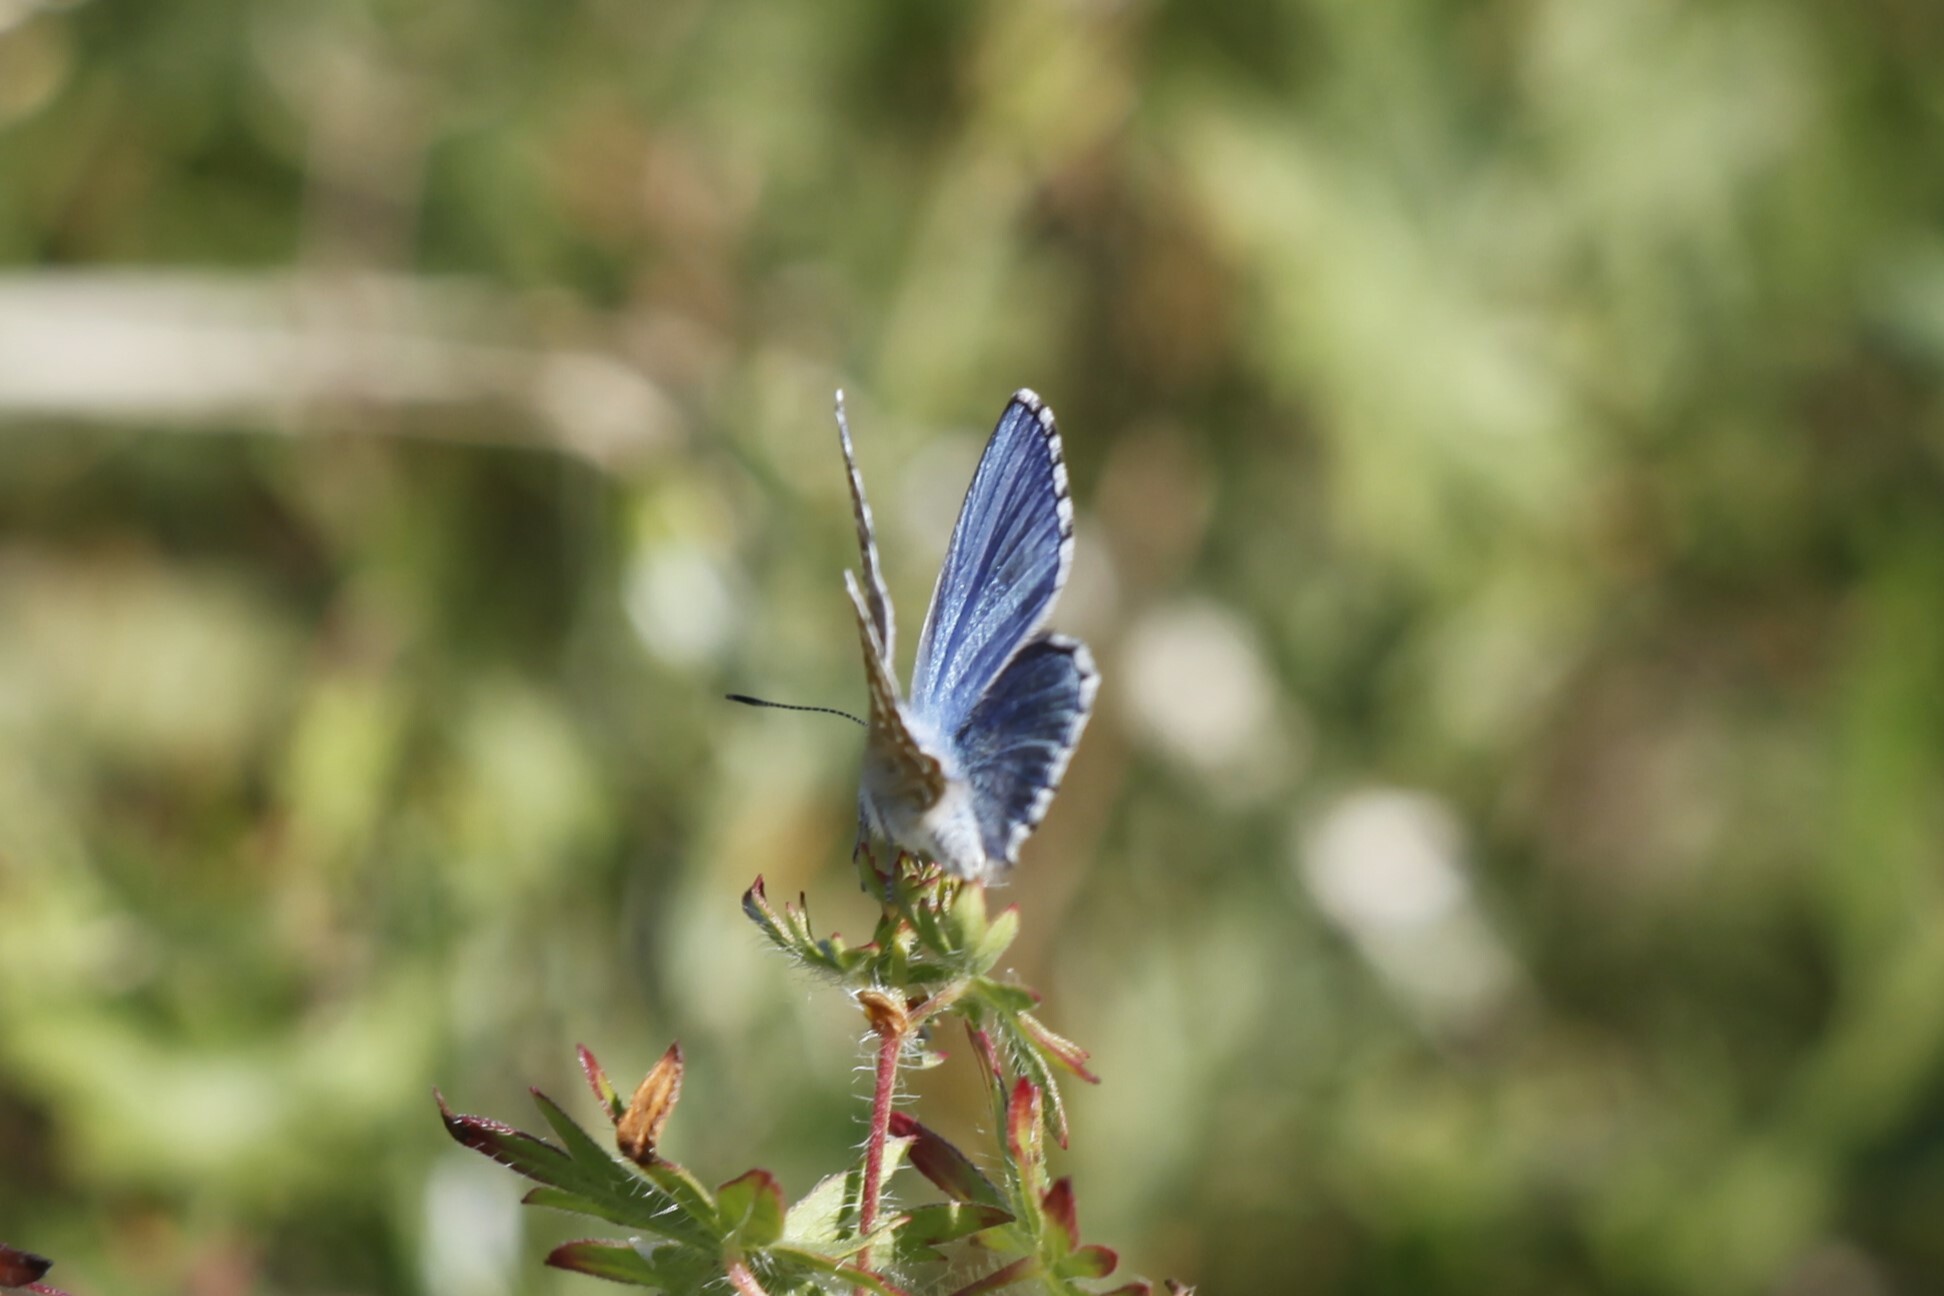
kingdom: Animalia
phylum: Arthropoda
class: Insecta
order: Lepidoptera
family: Lycaenidae
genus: Lysandra
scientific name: Lysandra bellargus
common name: Adonis blue
